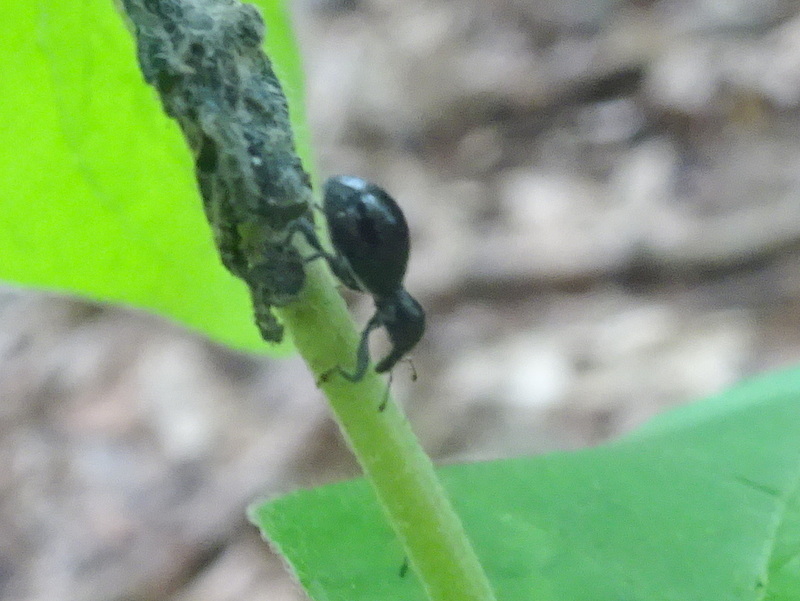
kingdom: Animalia
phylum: Arthropoda
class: Insecta
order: Coleoptera
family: Curculionidae
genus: Otidocephalus
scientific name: Otidocephalus chevrolatii
